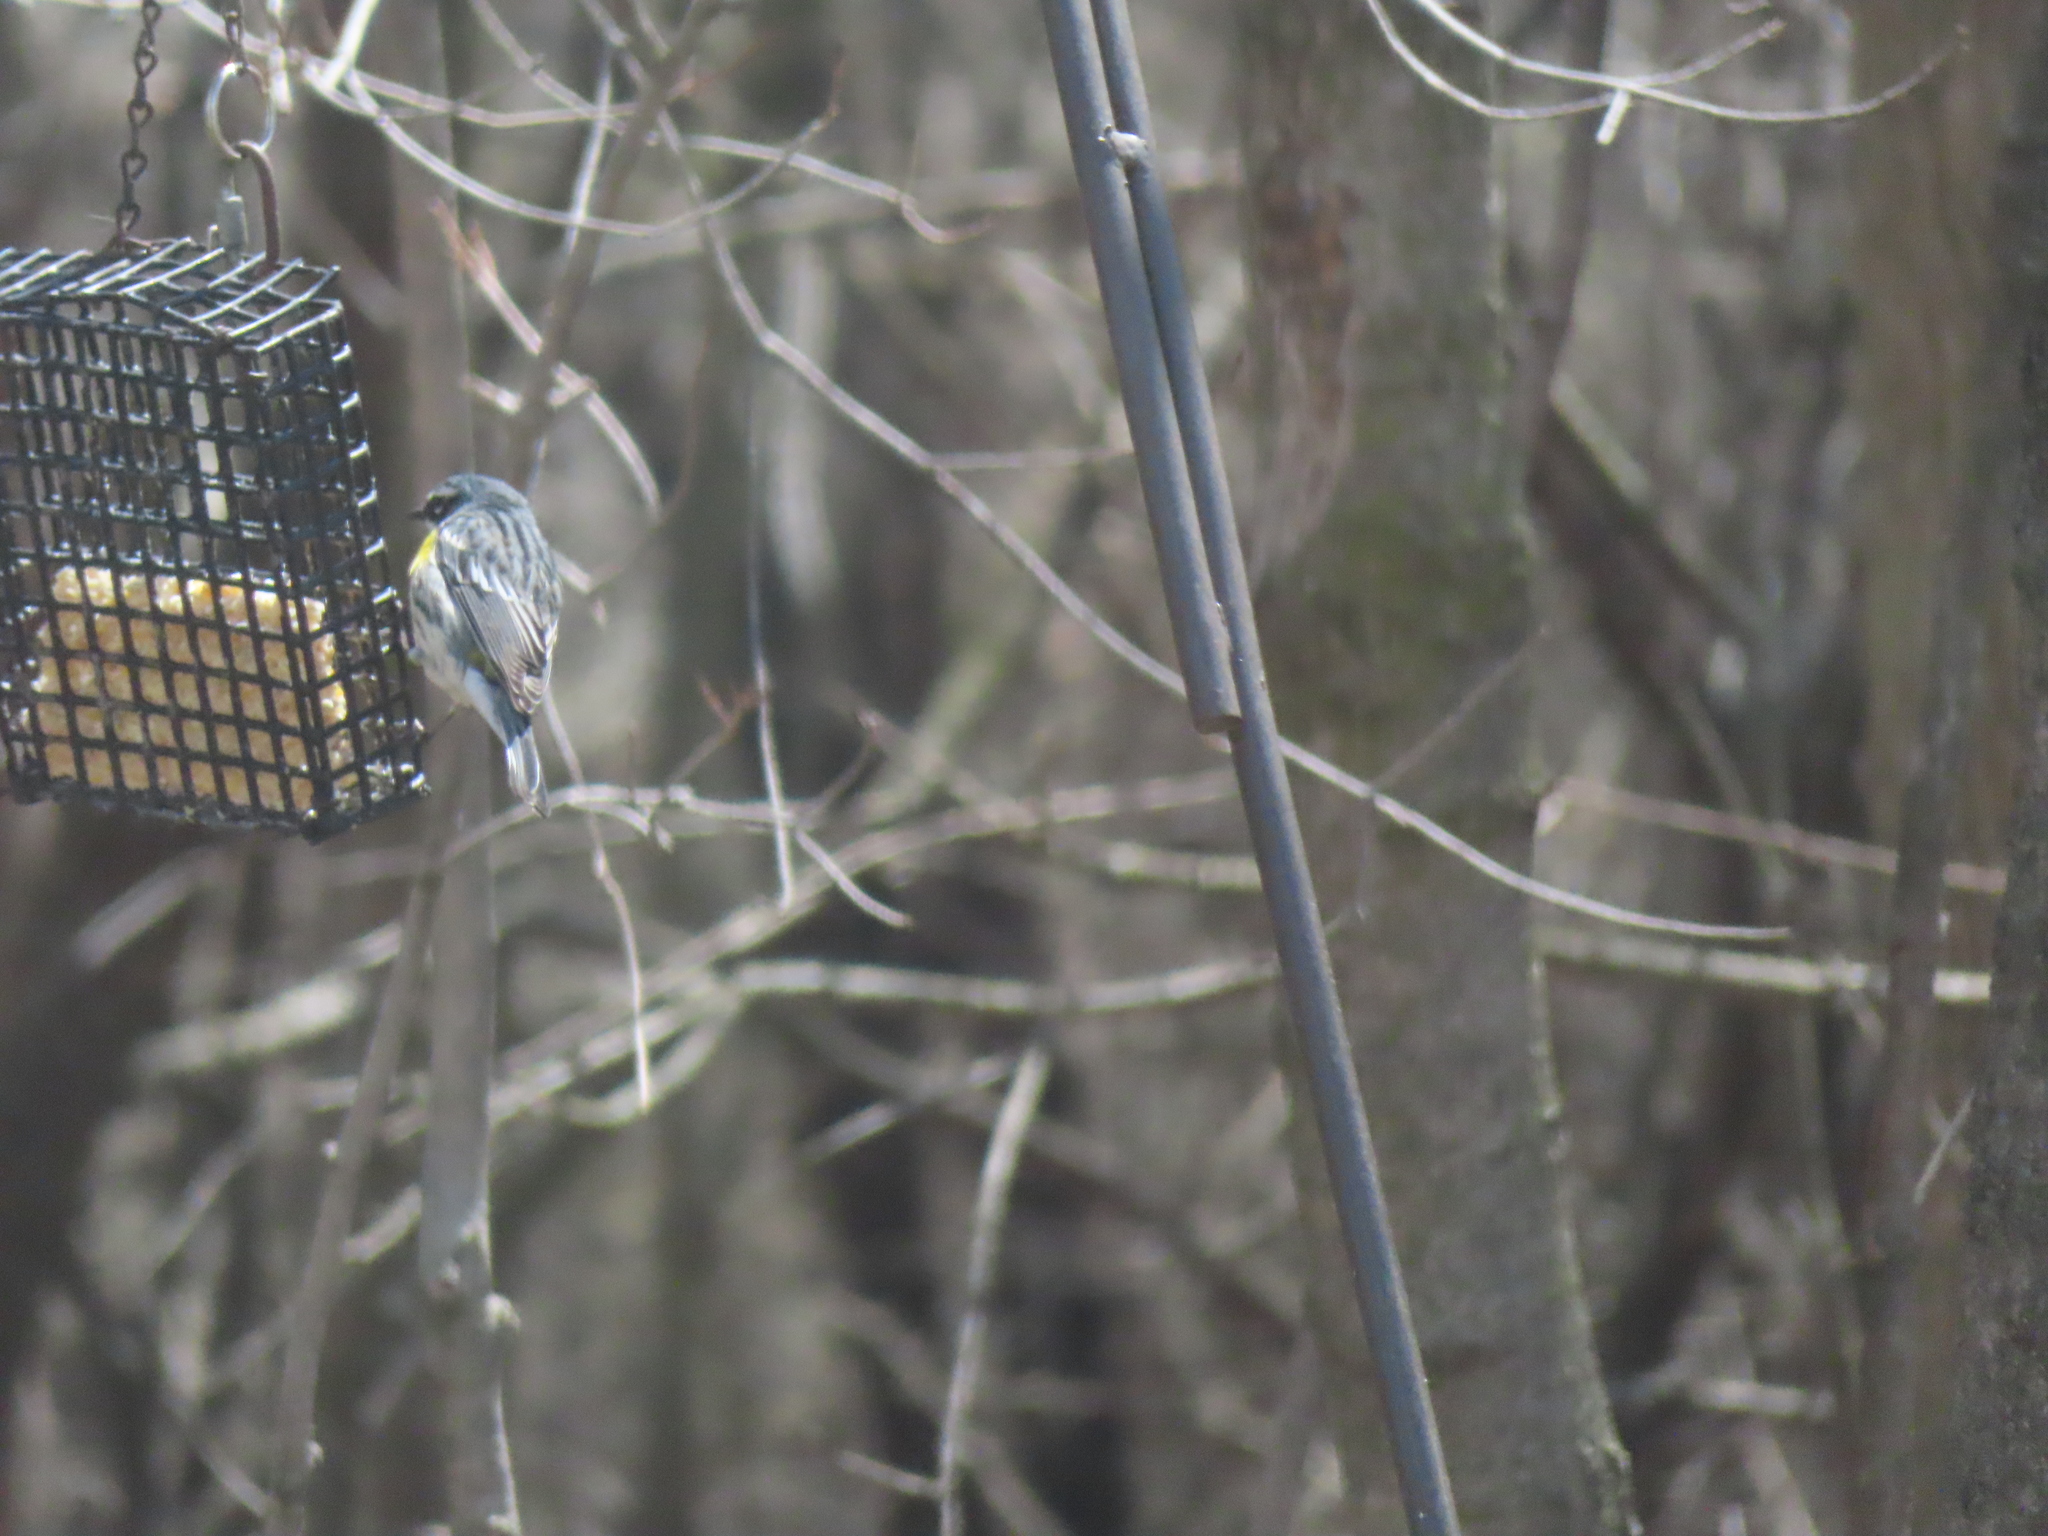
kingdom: Animalia
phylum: Chordata
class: Aves
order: Passeriformes
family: Parulidae
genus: Setophaga
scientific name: Setophaga coronata
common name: Myrtle warbler
